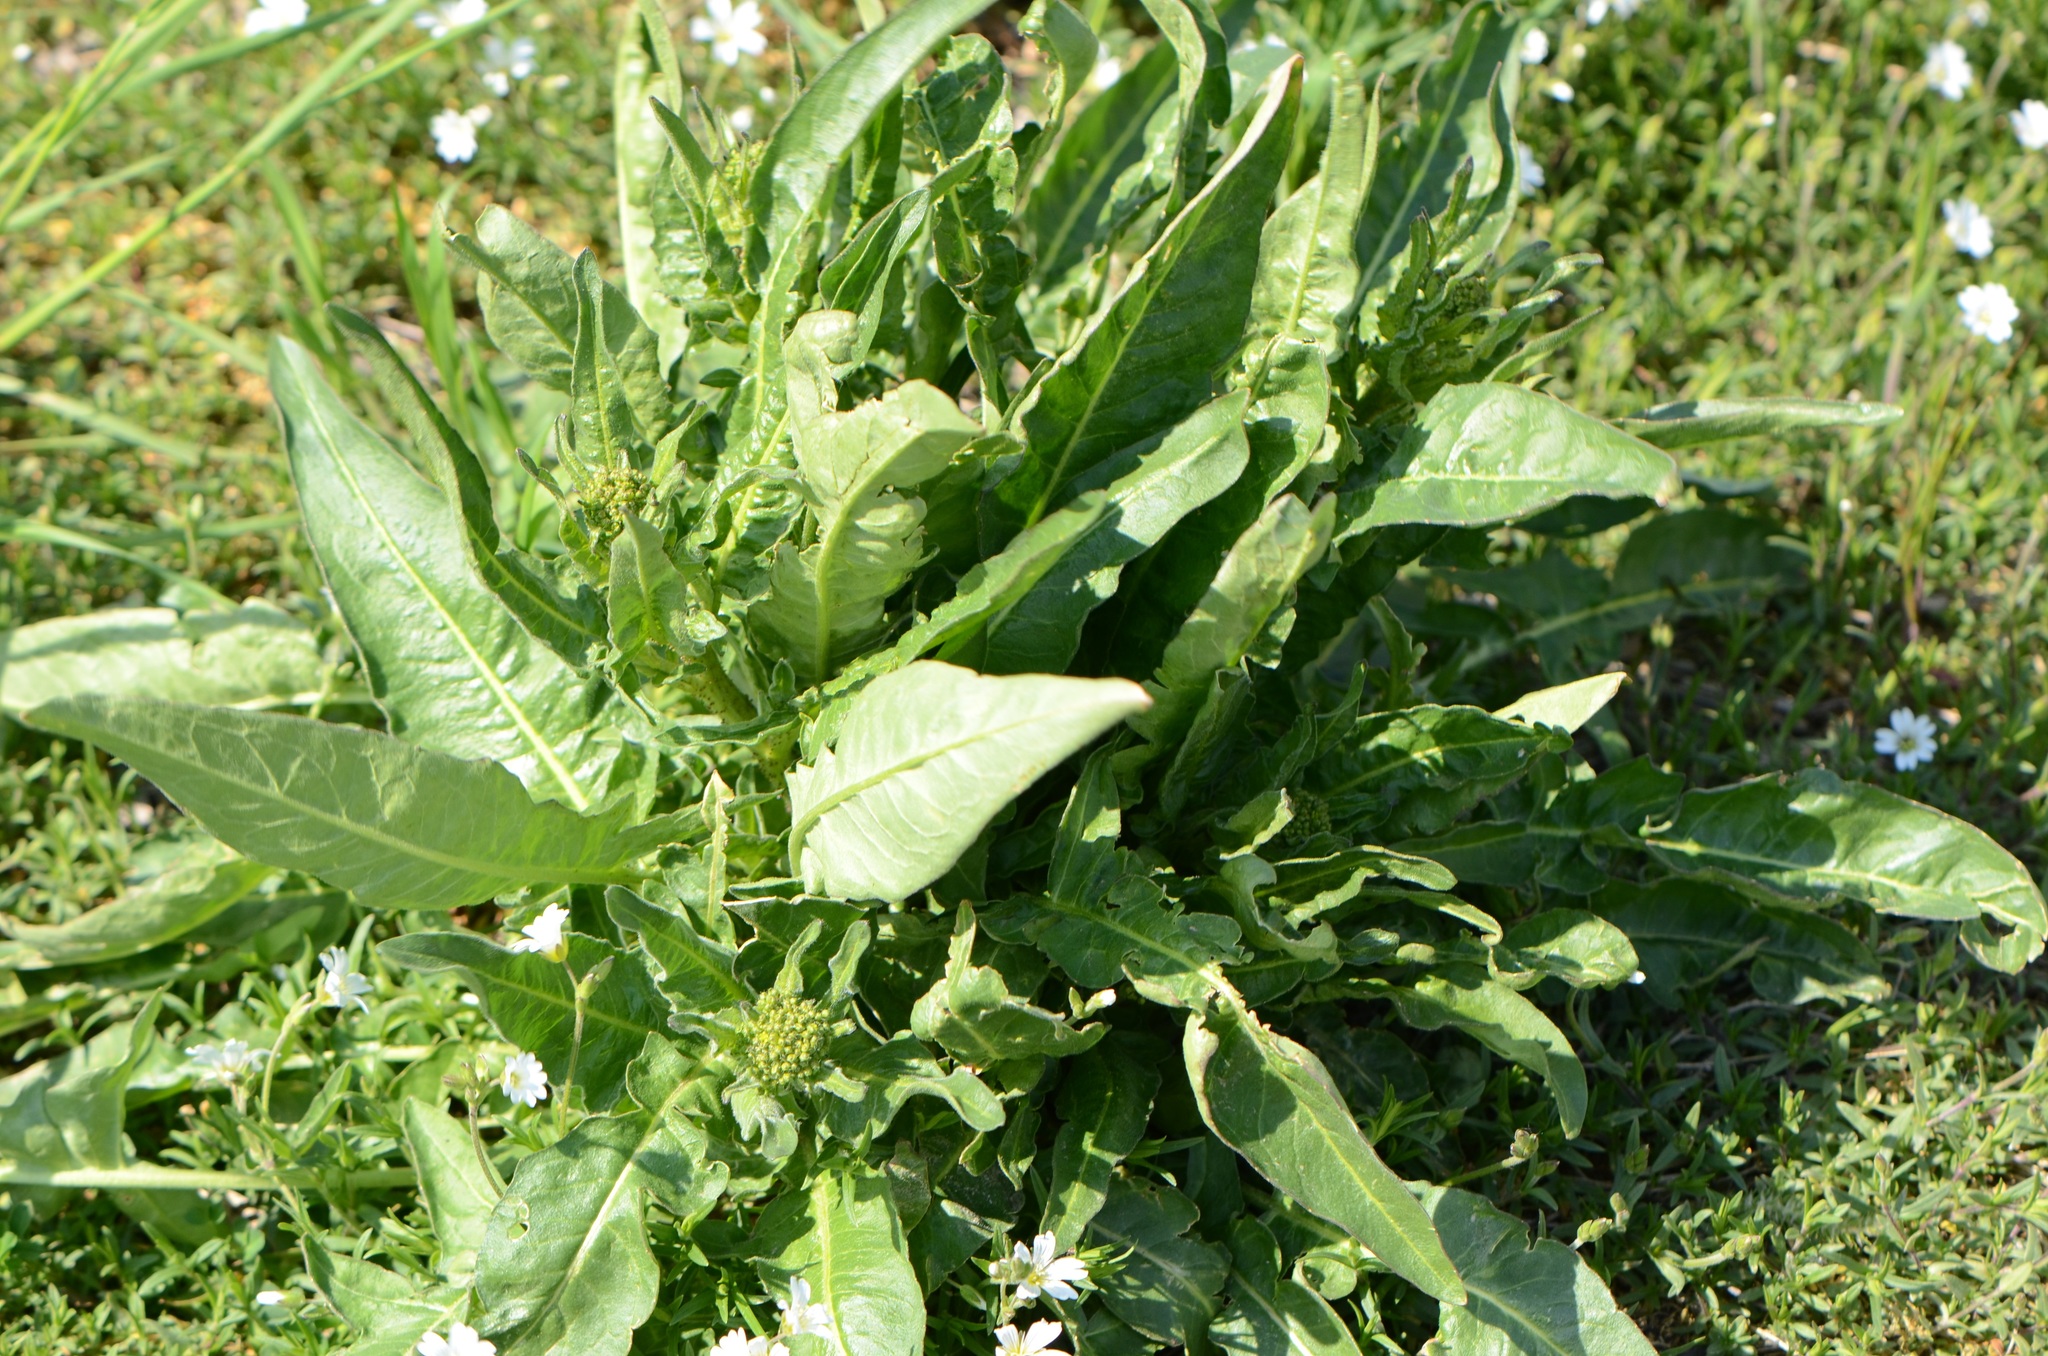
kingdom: Plantae
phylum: Tracheophyta
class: Magnoliopsida
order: Brassicales
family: Brassicaceae
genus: Bunias
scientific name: Bunias orientalis
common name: Warty-cabbage
